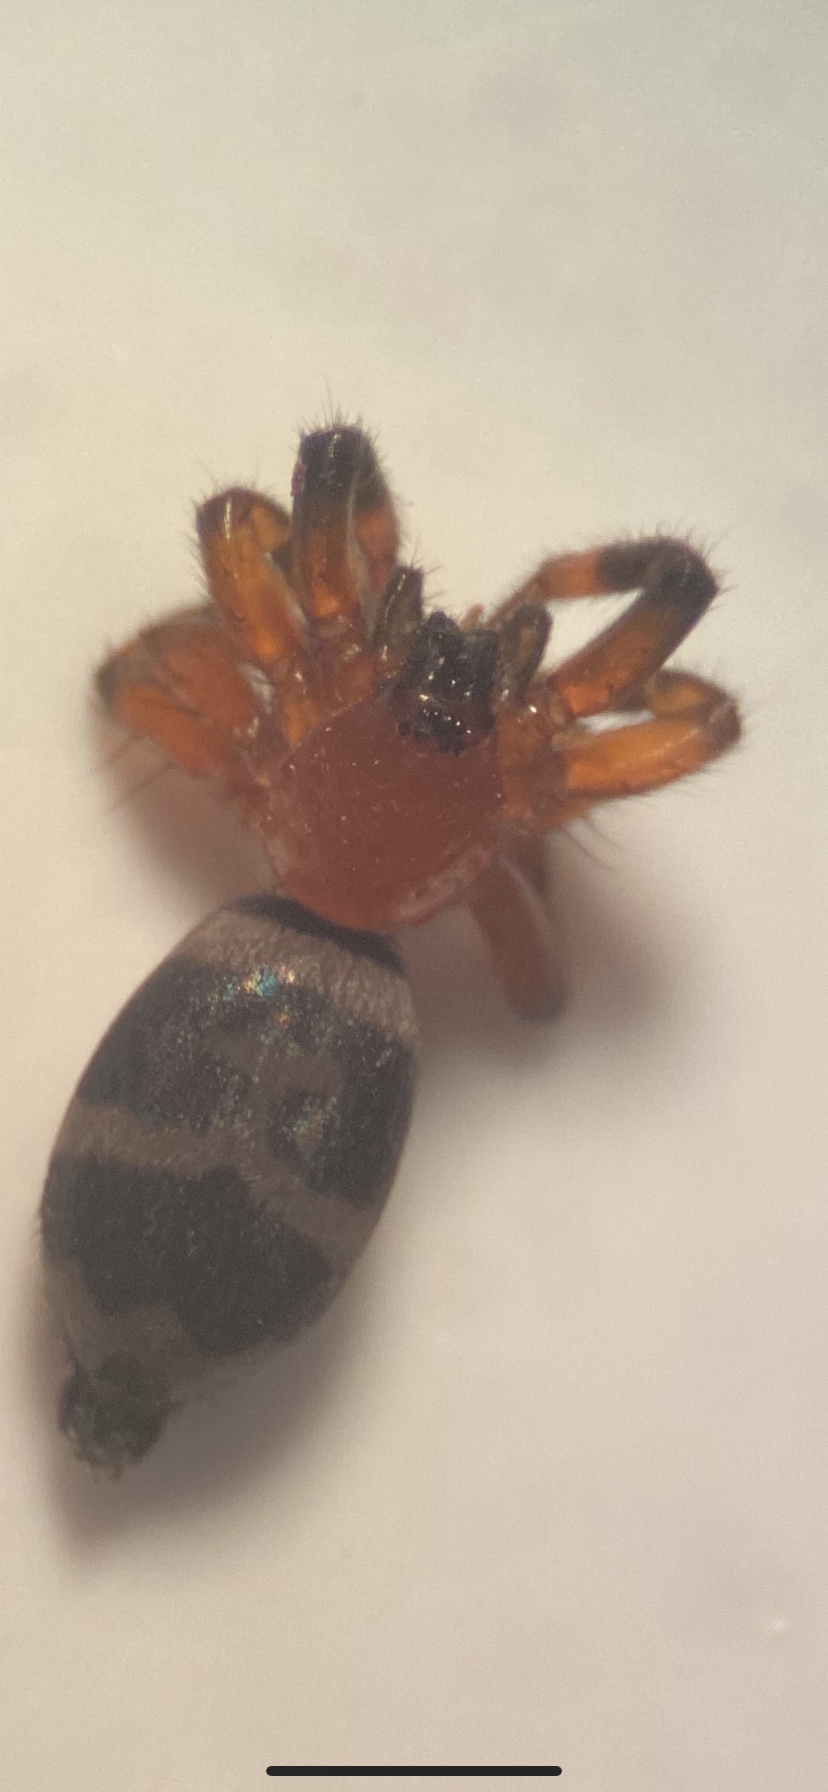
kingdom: Animalia
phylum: Arthropoda
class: Arachnida
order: Araneae
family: Gnaphosidae
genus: Sergiolus
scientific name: Sergiolus capulatus
